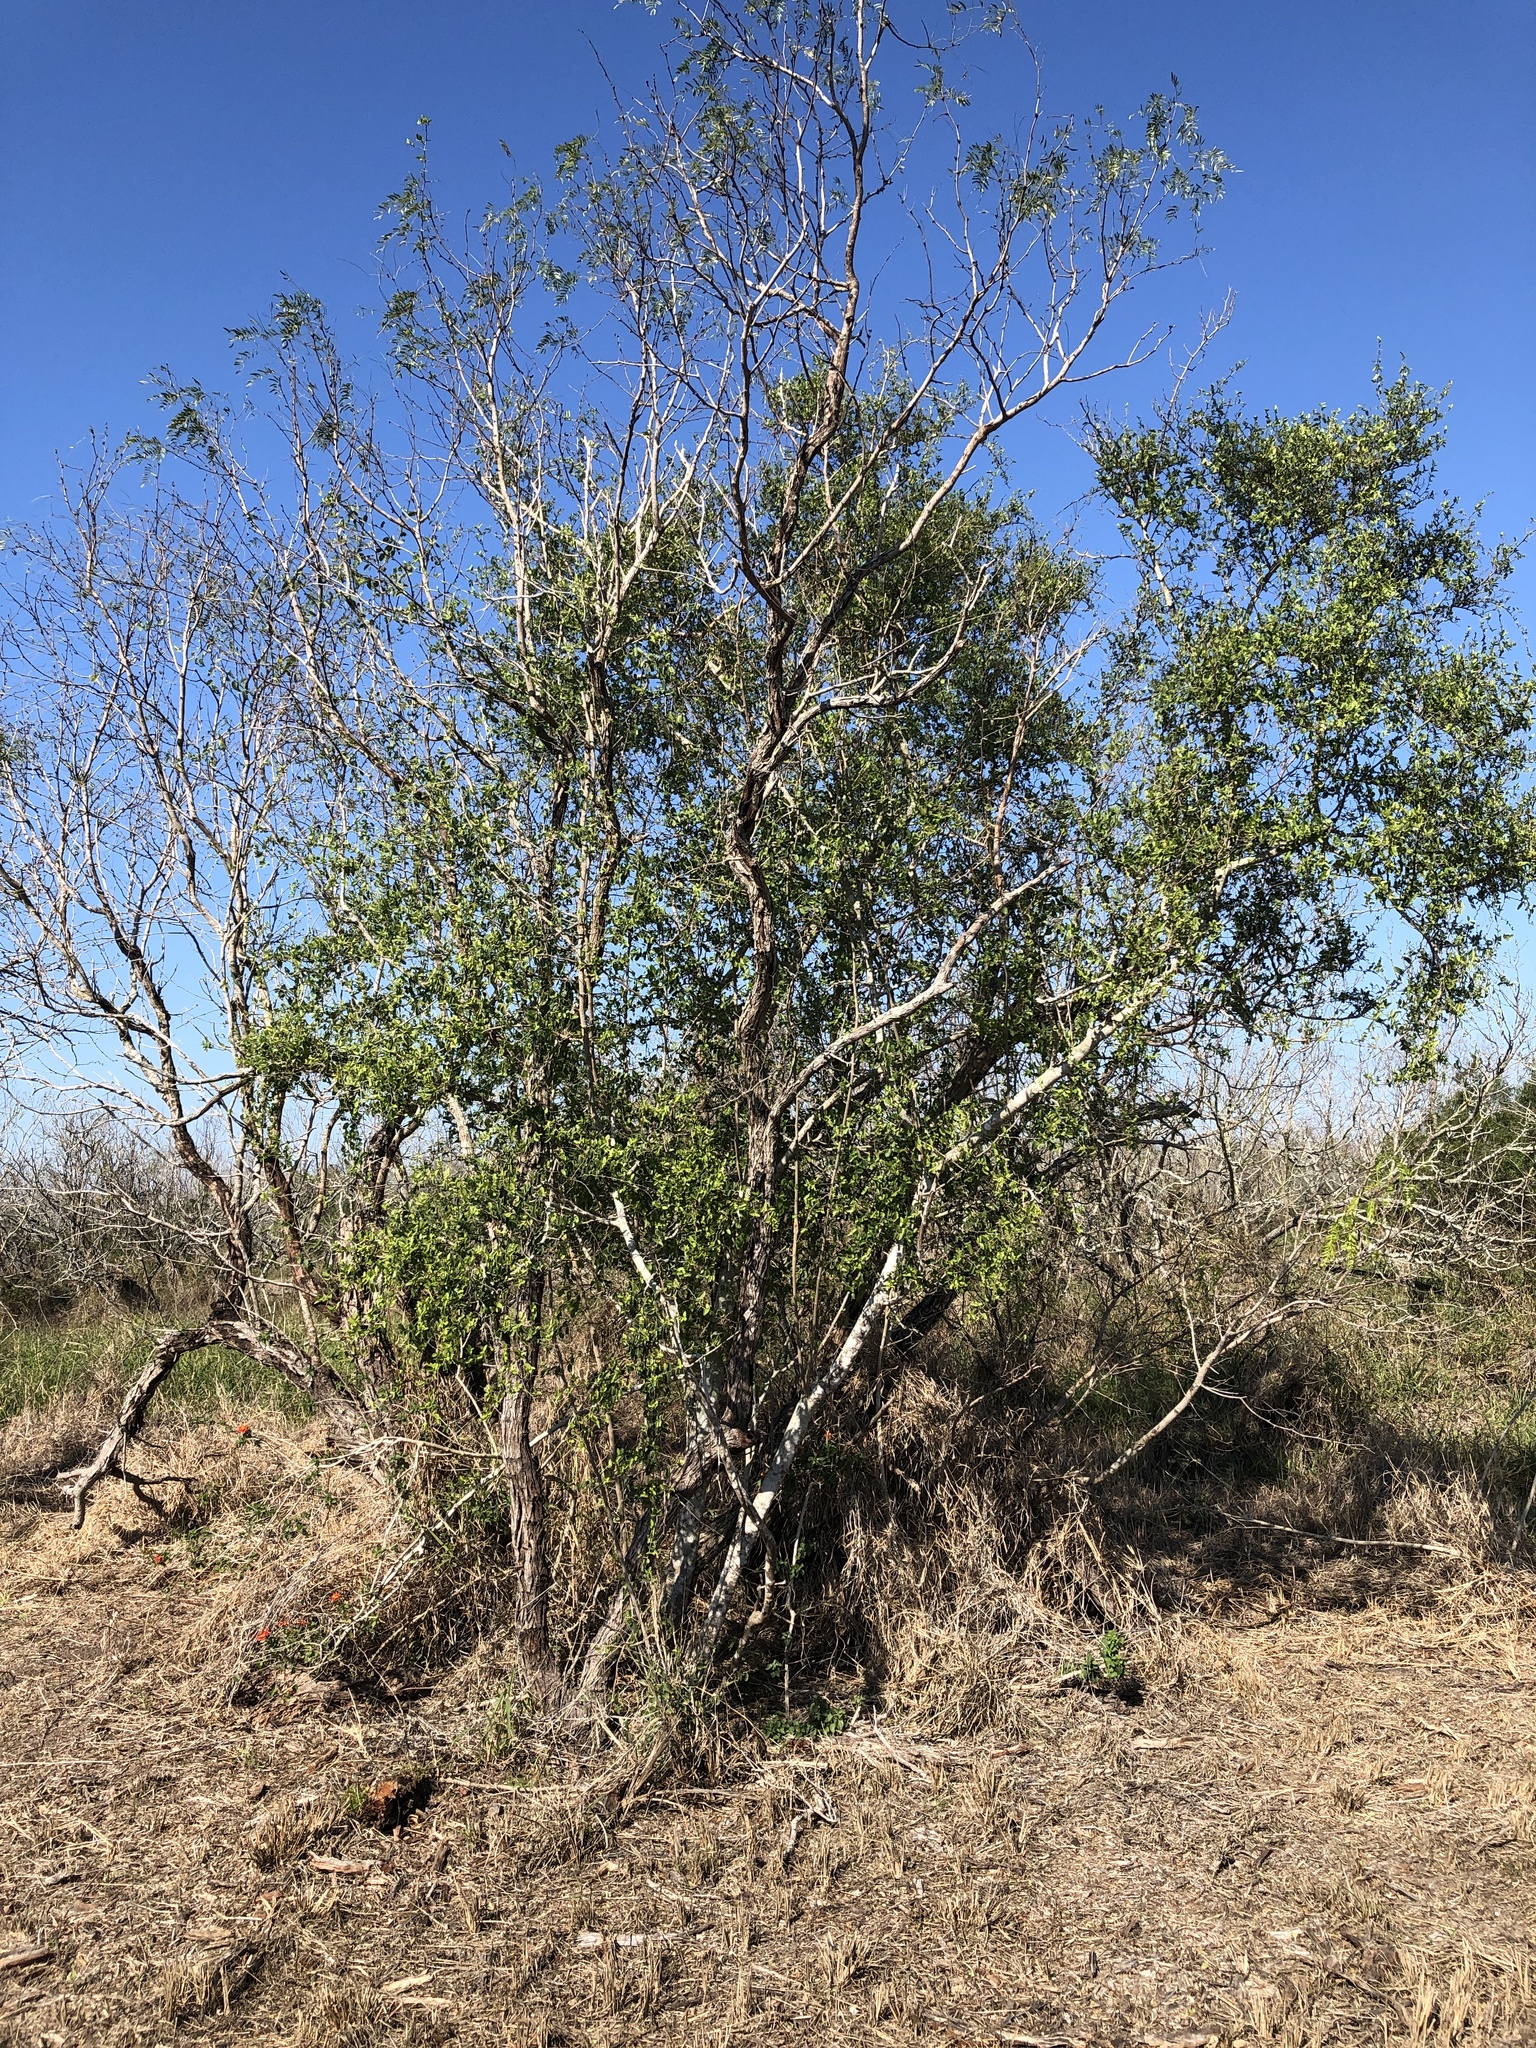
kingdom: Plantae
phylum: Tracheophyta
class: Magnoliopsida
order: Rosales
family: Cannabaceae
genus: Celtis
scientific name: Celtis pallida
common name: Desert hackberry
